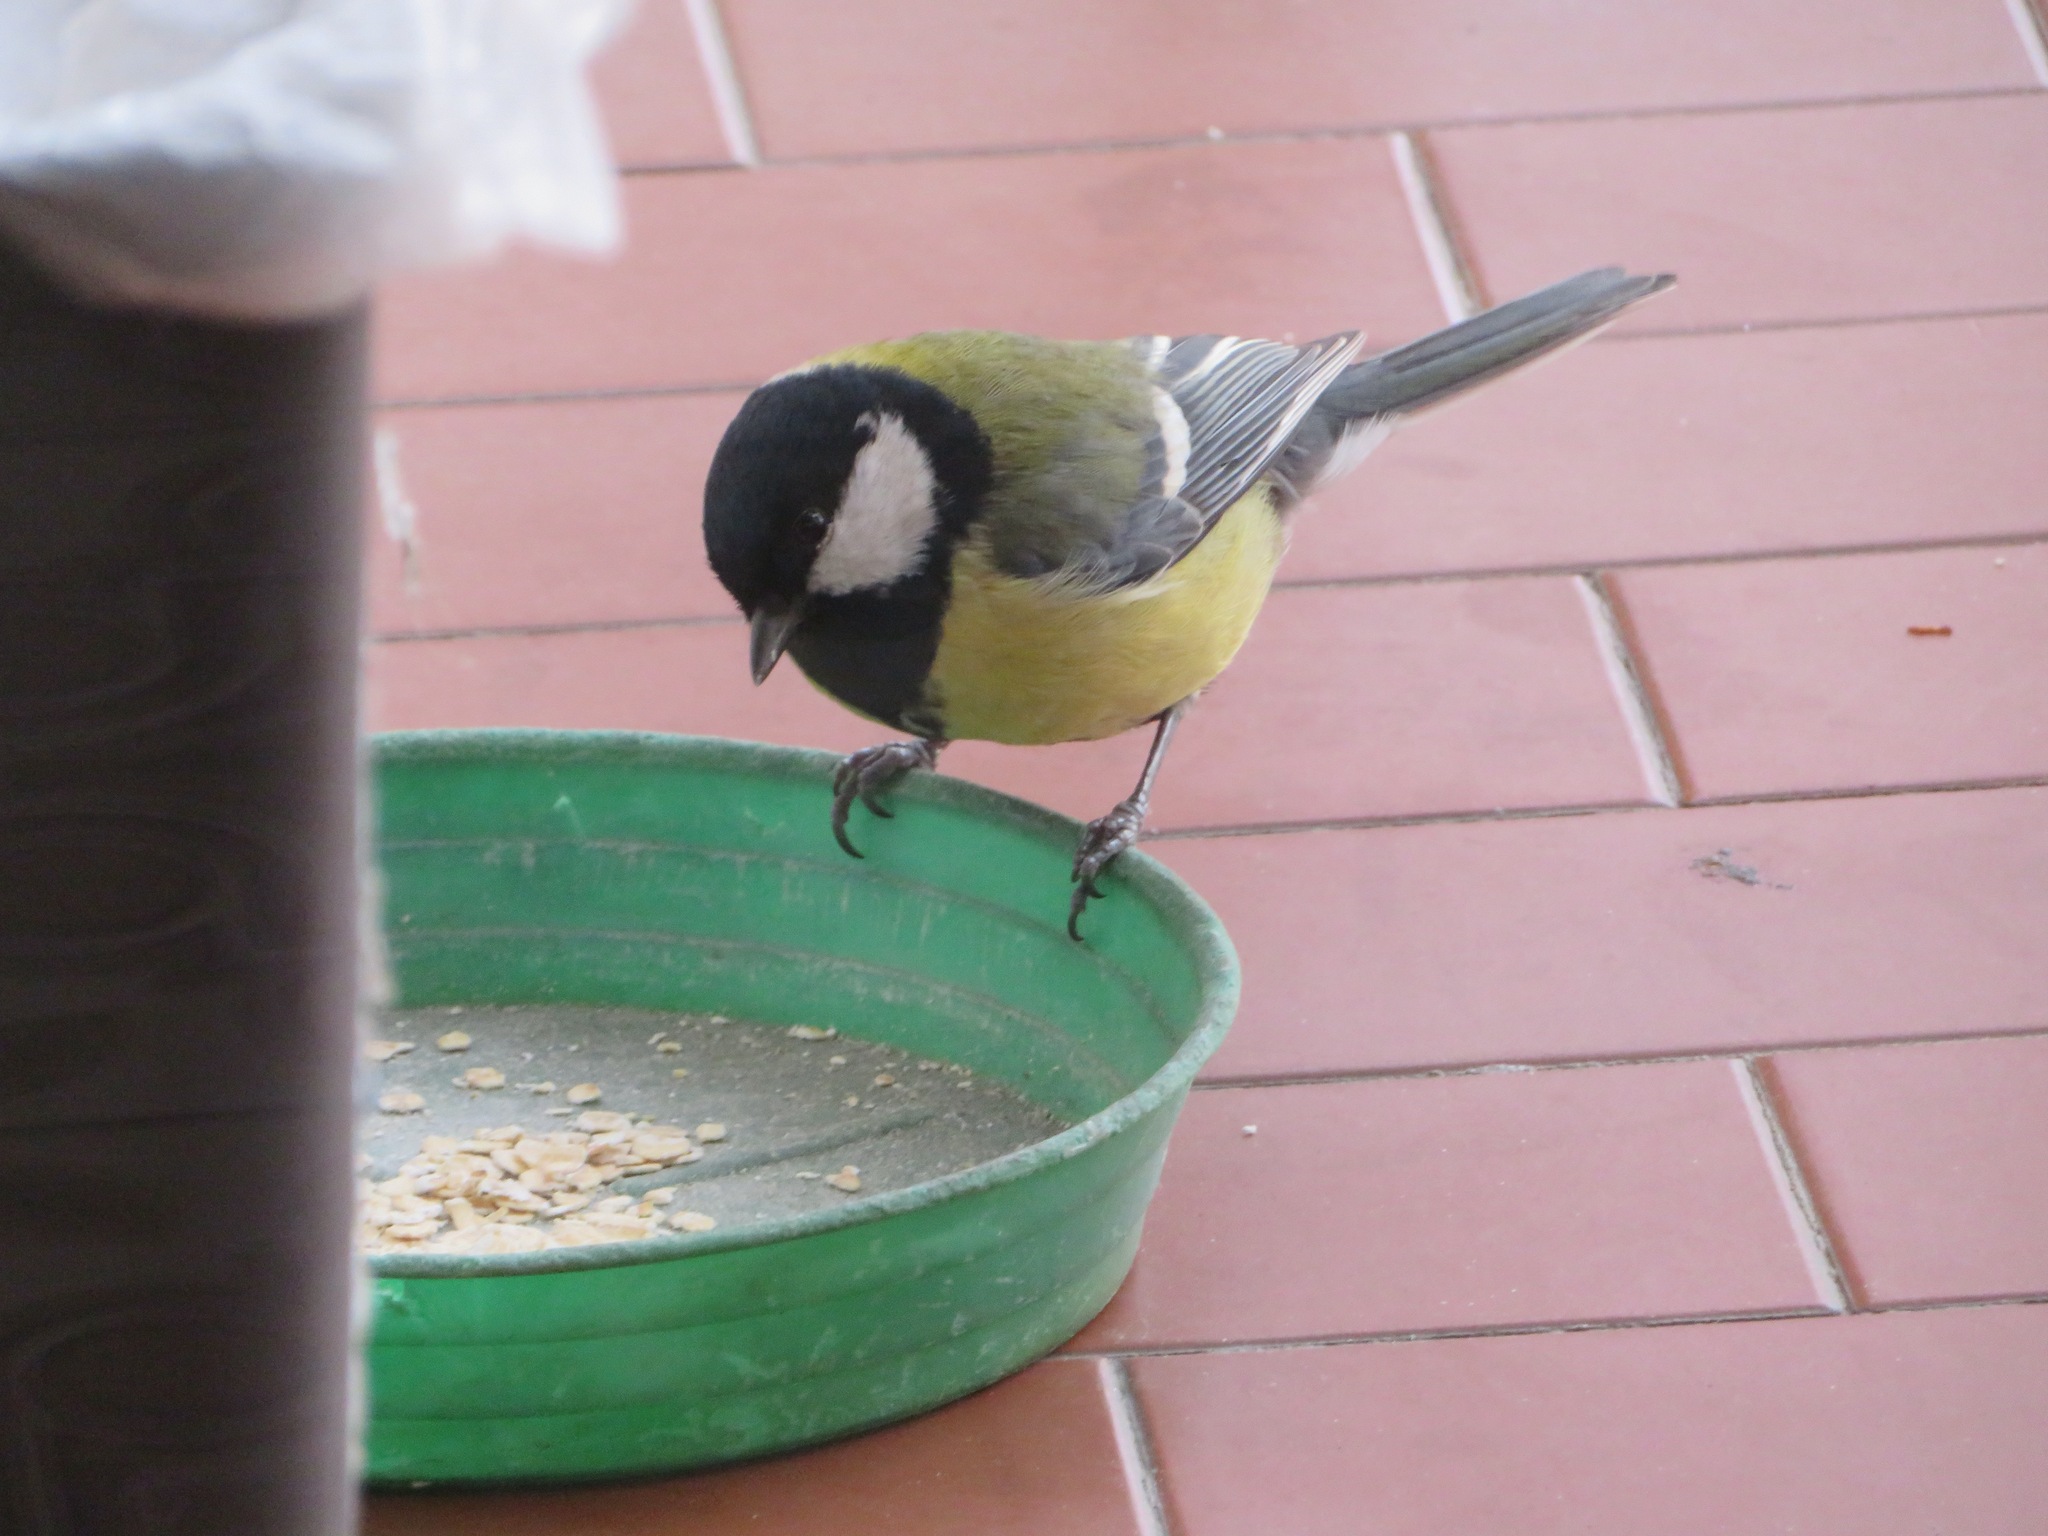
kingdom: Animalia
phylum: Chordata
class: Aves
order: Passeriformes
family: Paridae
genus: Parus
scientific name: Parus major
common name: Great tit
